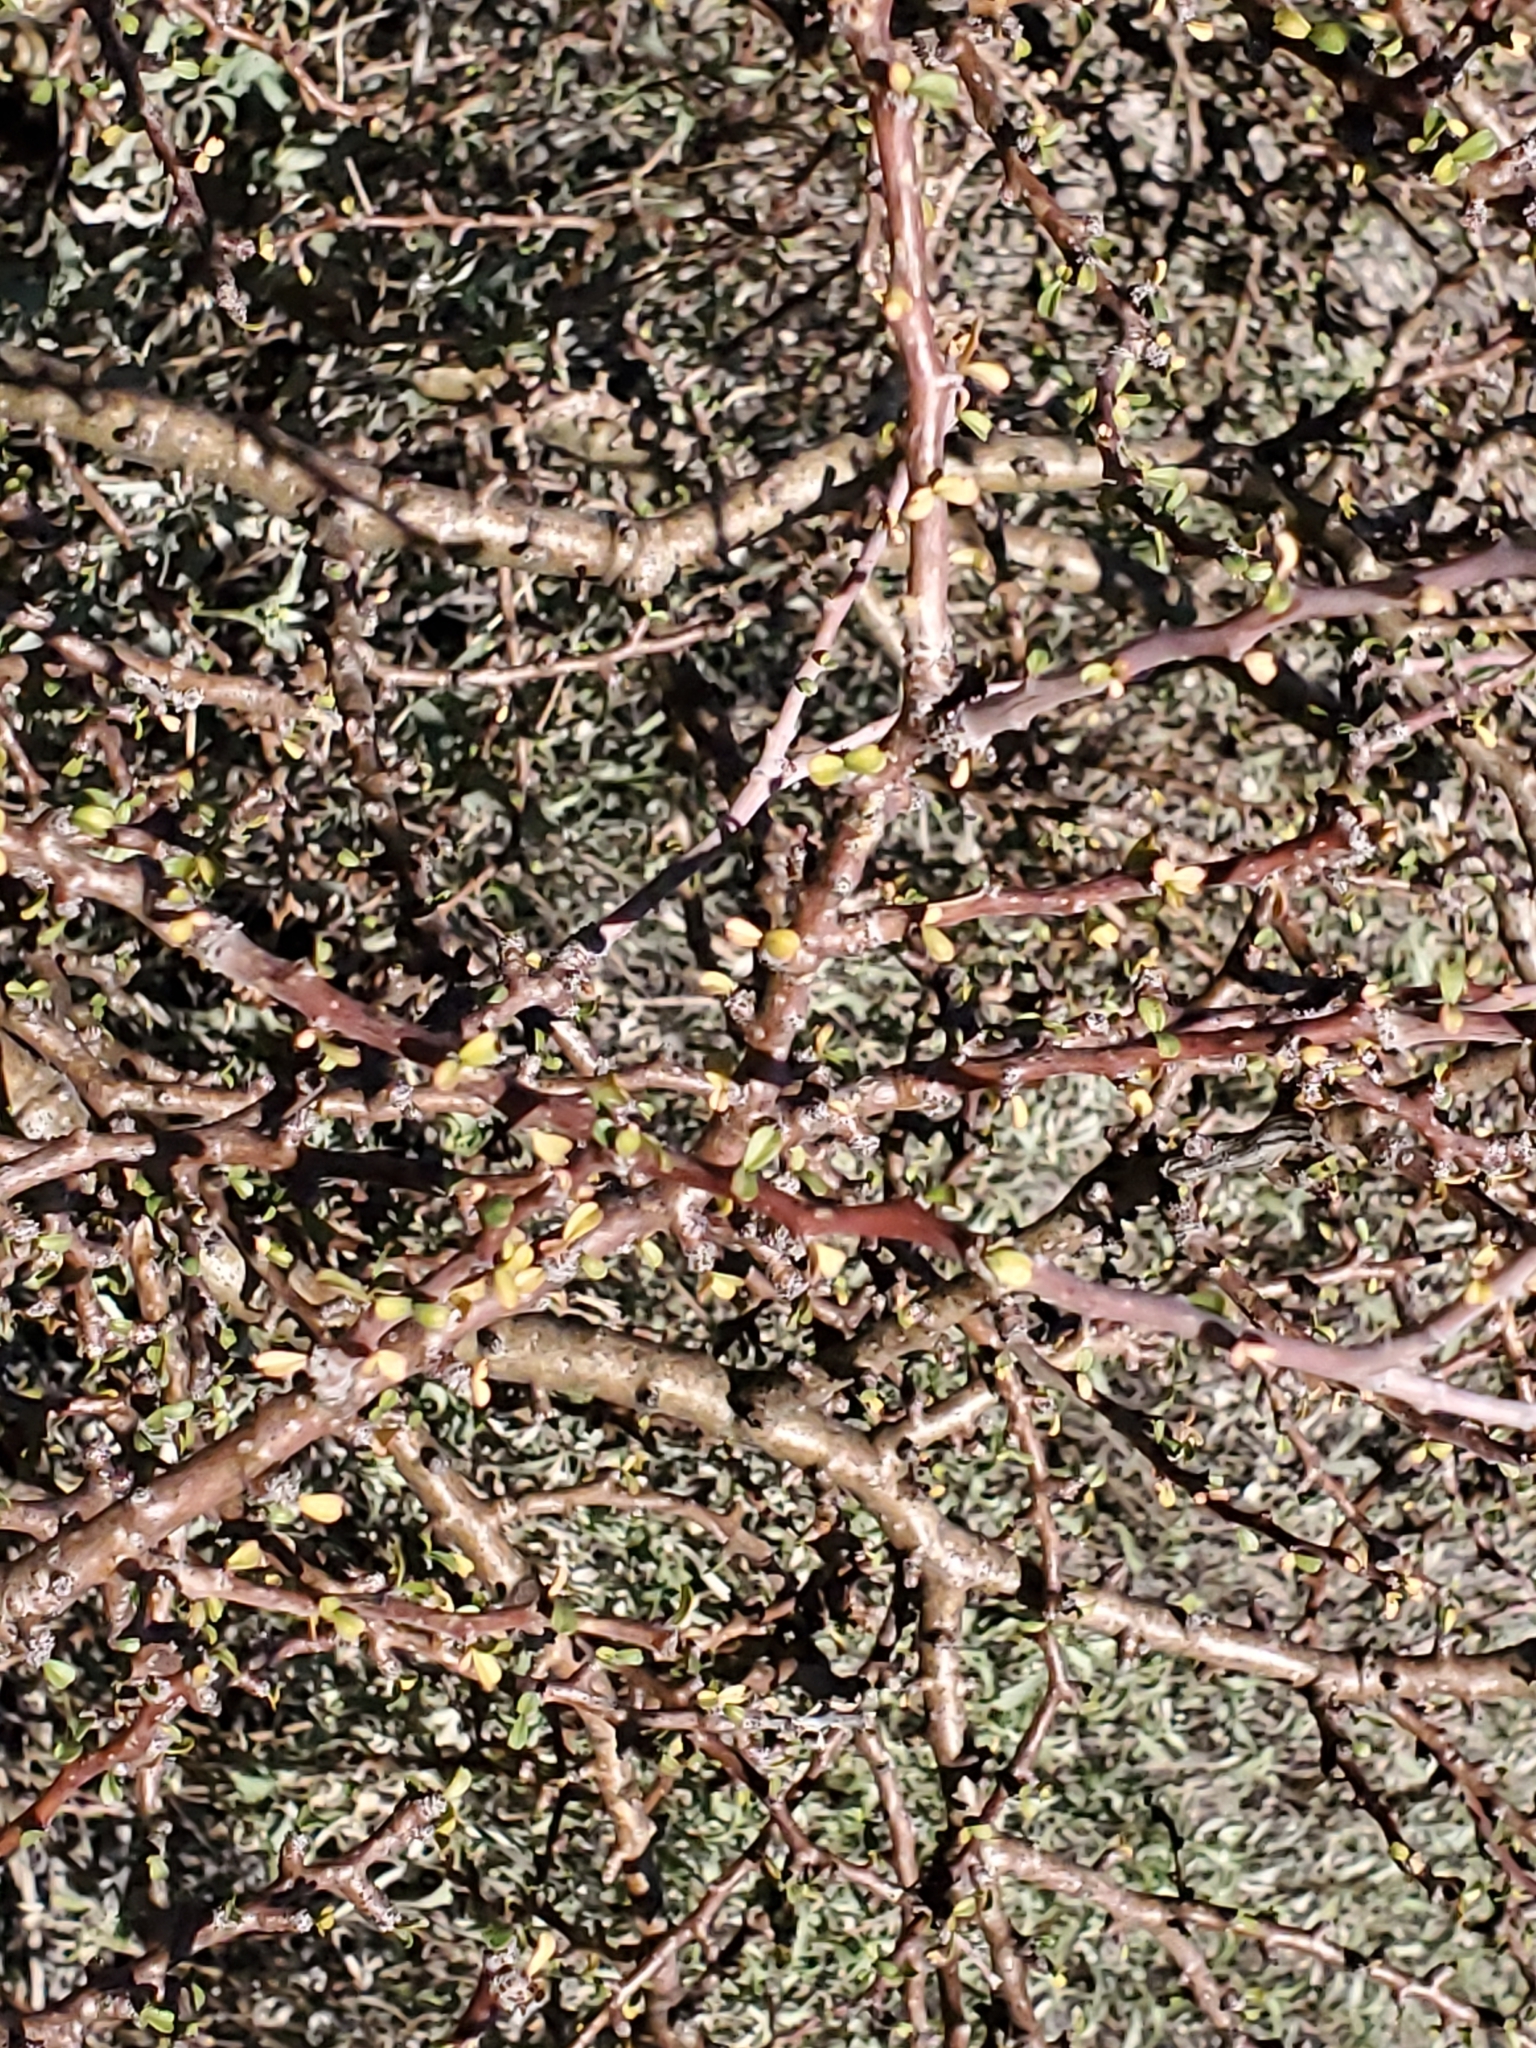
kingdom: Plantae
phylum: Tracheophyta
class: Magnoliopsida
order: Malpighiales
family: Euphorbiaceae
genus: Jatropha
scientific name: Jatropha cuneata
